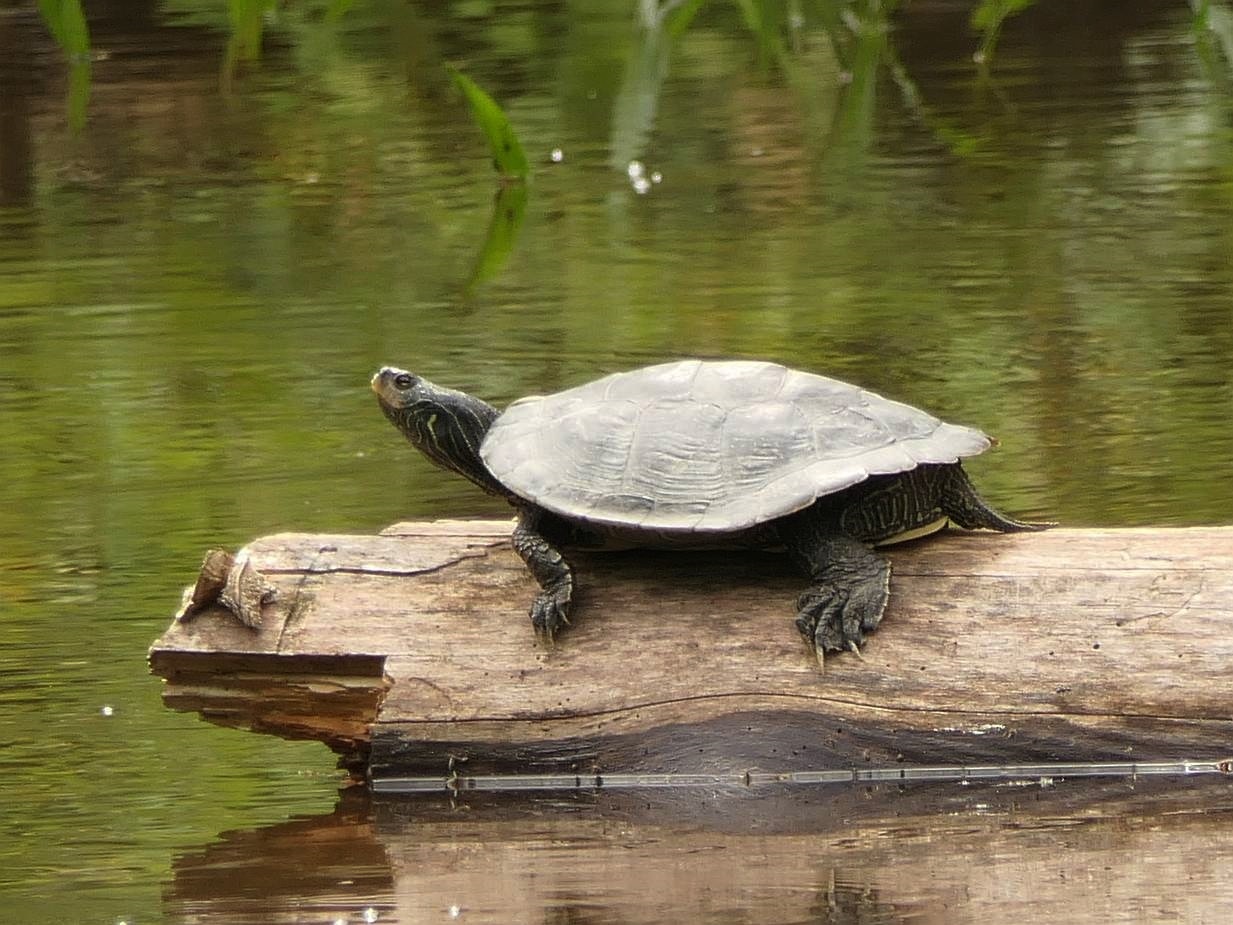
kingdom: Animalia
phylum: Chordata
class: Testudines
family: Emydidae
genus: Graptemys
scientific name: Graptemys geographica
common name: Common map turtle
